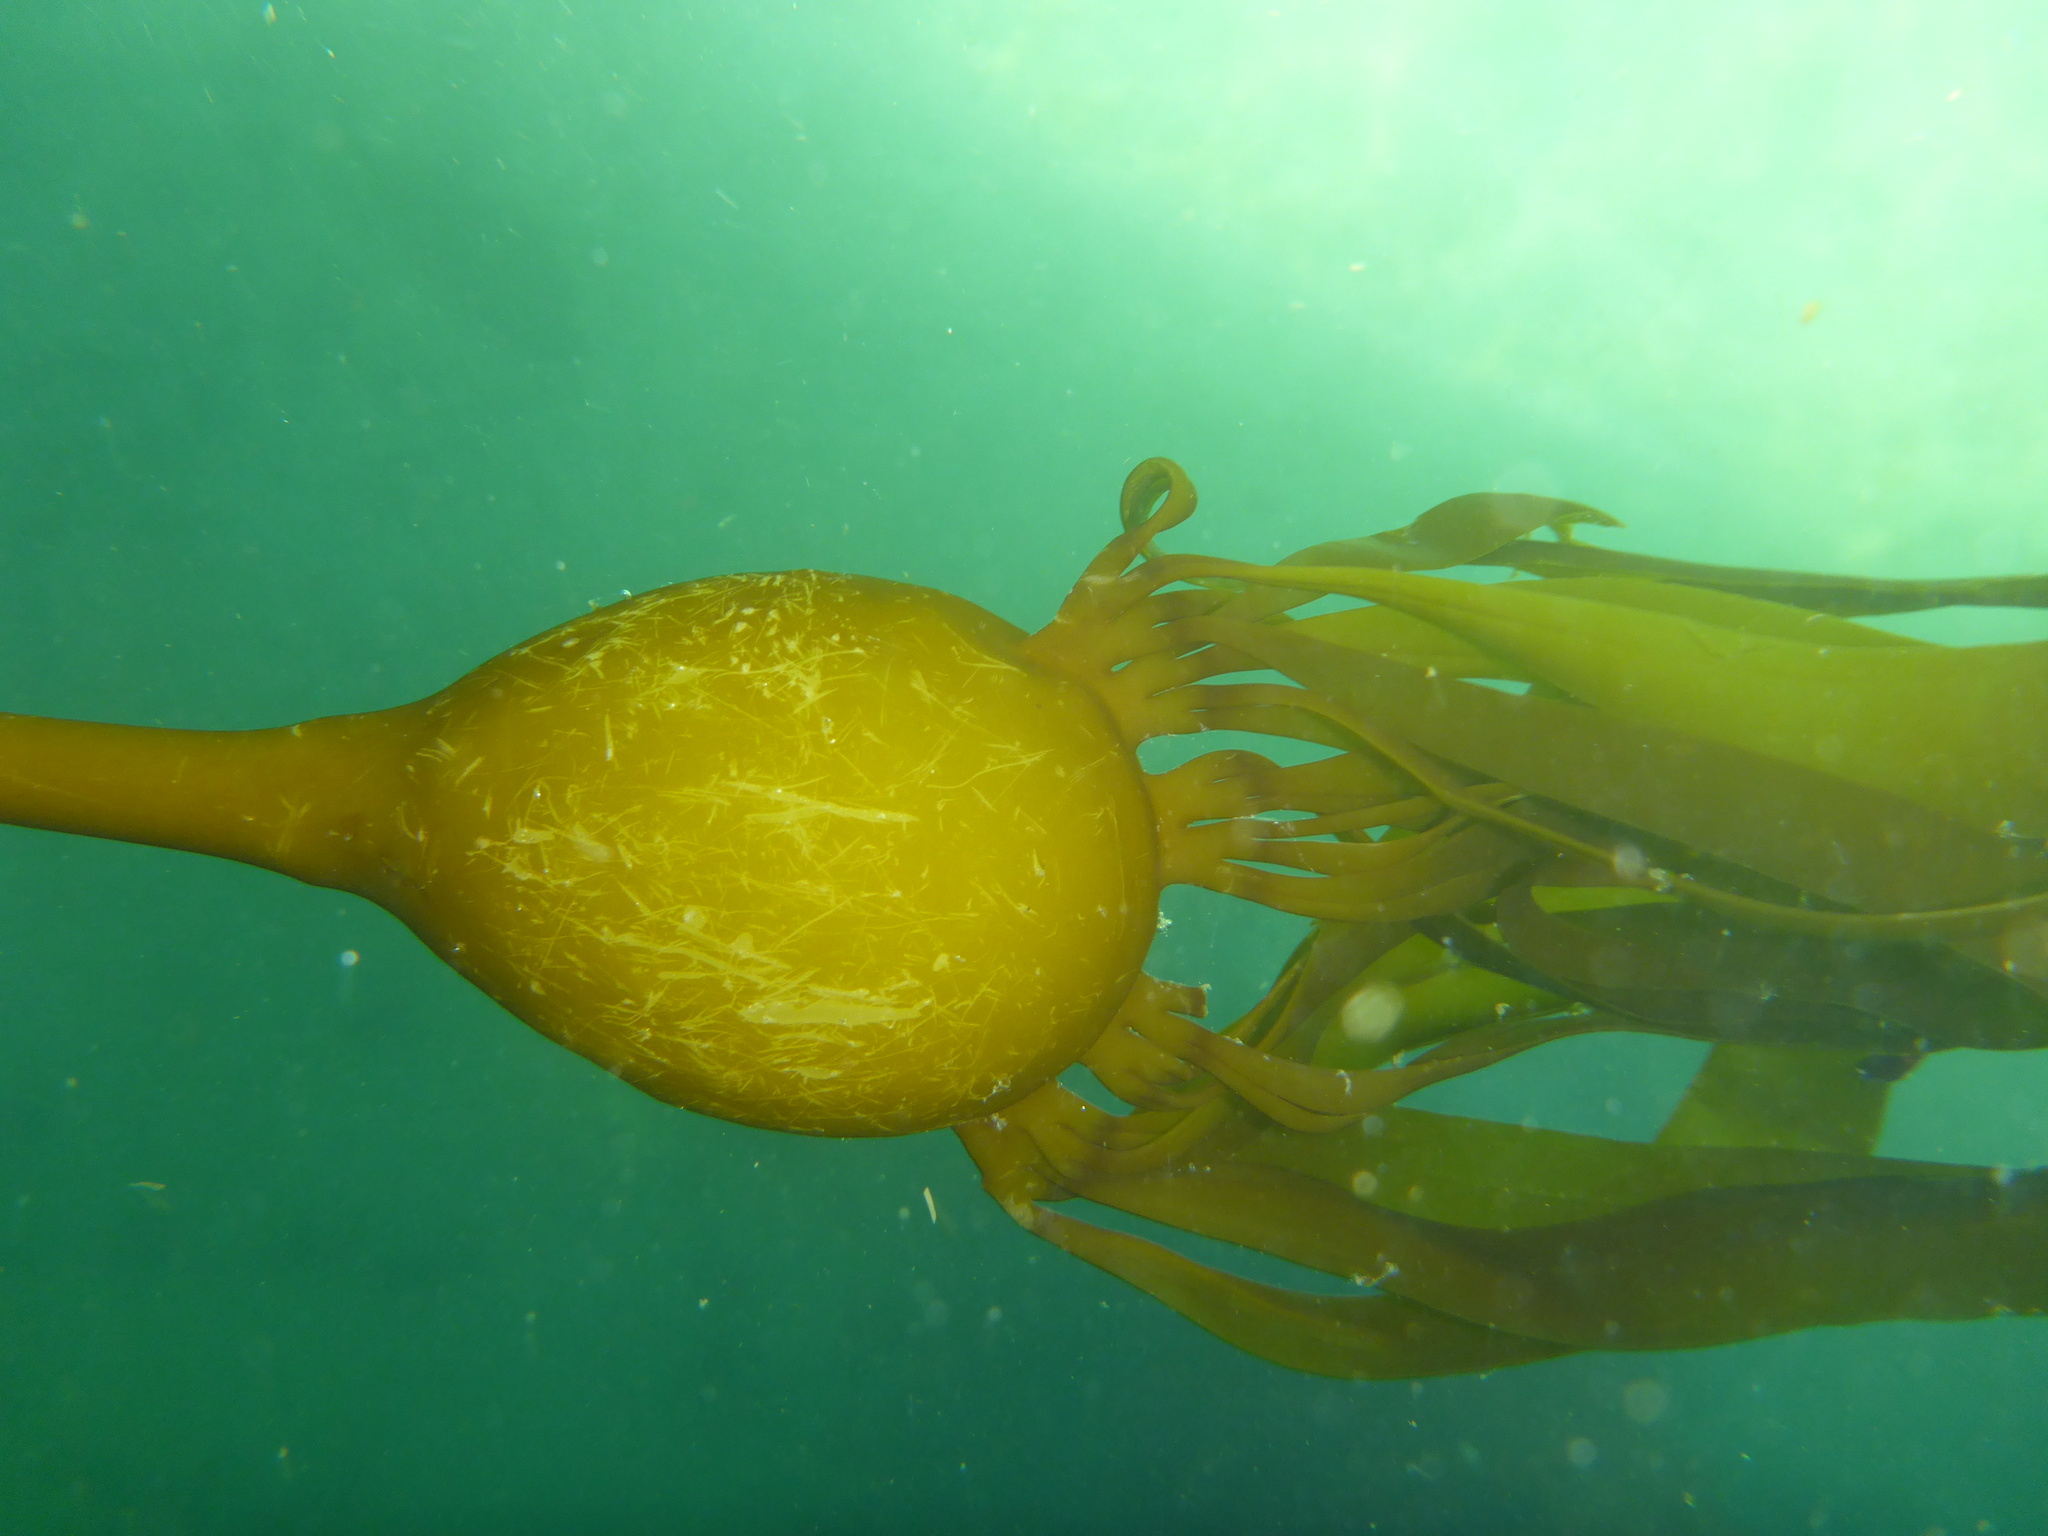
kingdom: Chromista
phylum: Ochrophyta
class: Phaeophyceae
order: Laminariales
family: Laminariaceae
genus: Nereocystis
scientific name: Nereocystis luetkeana
